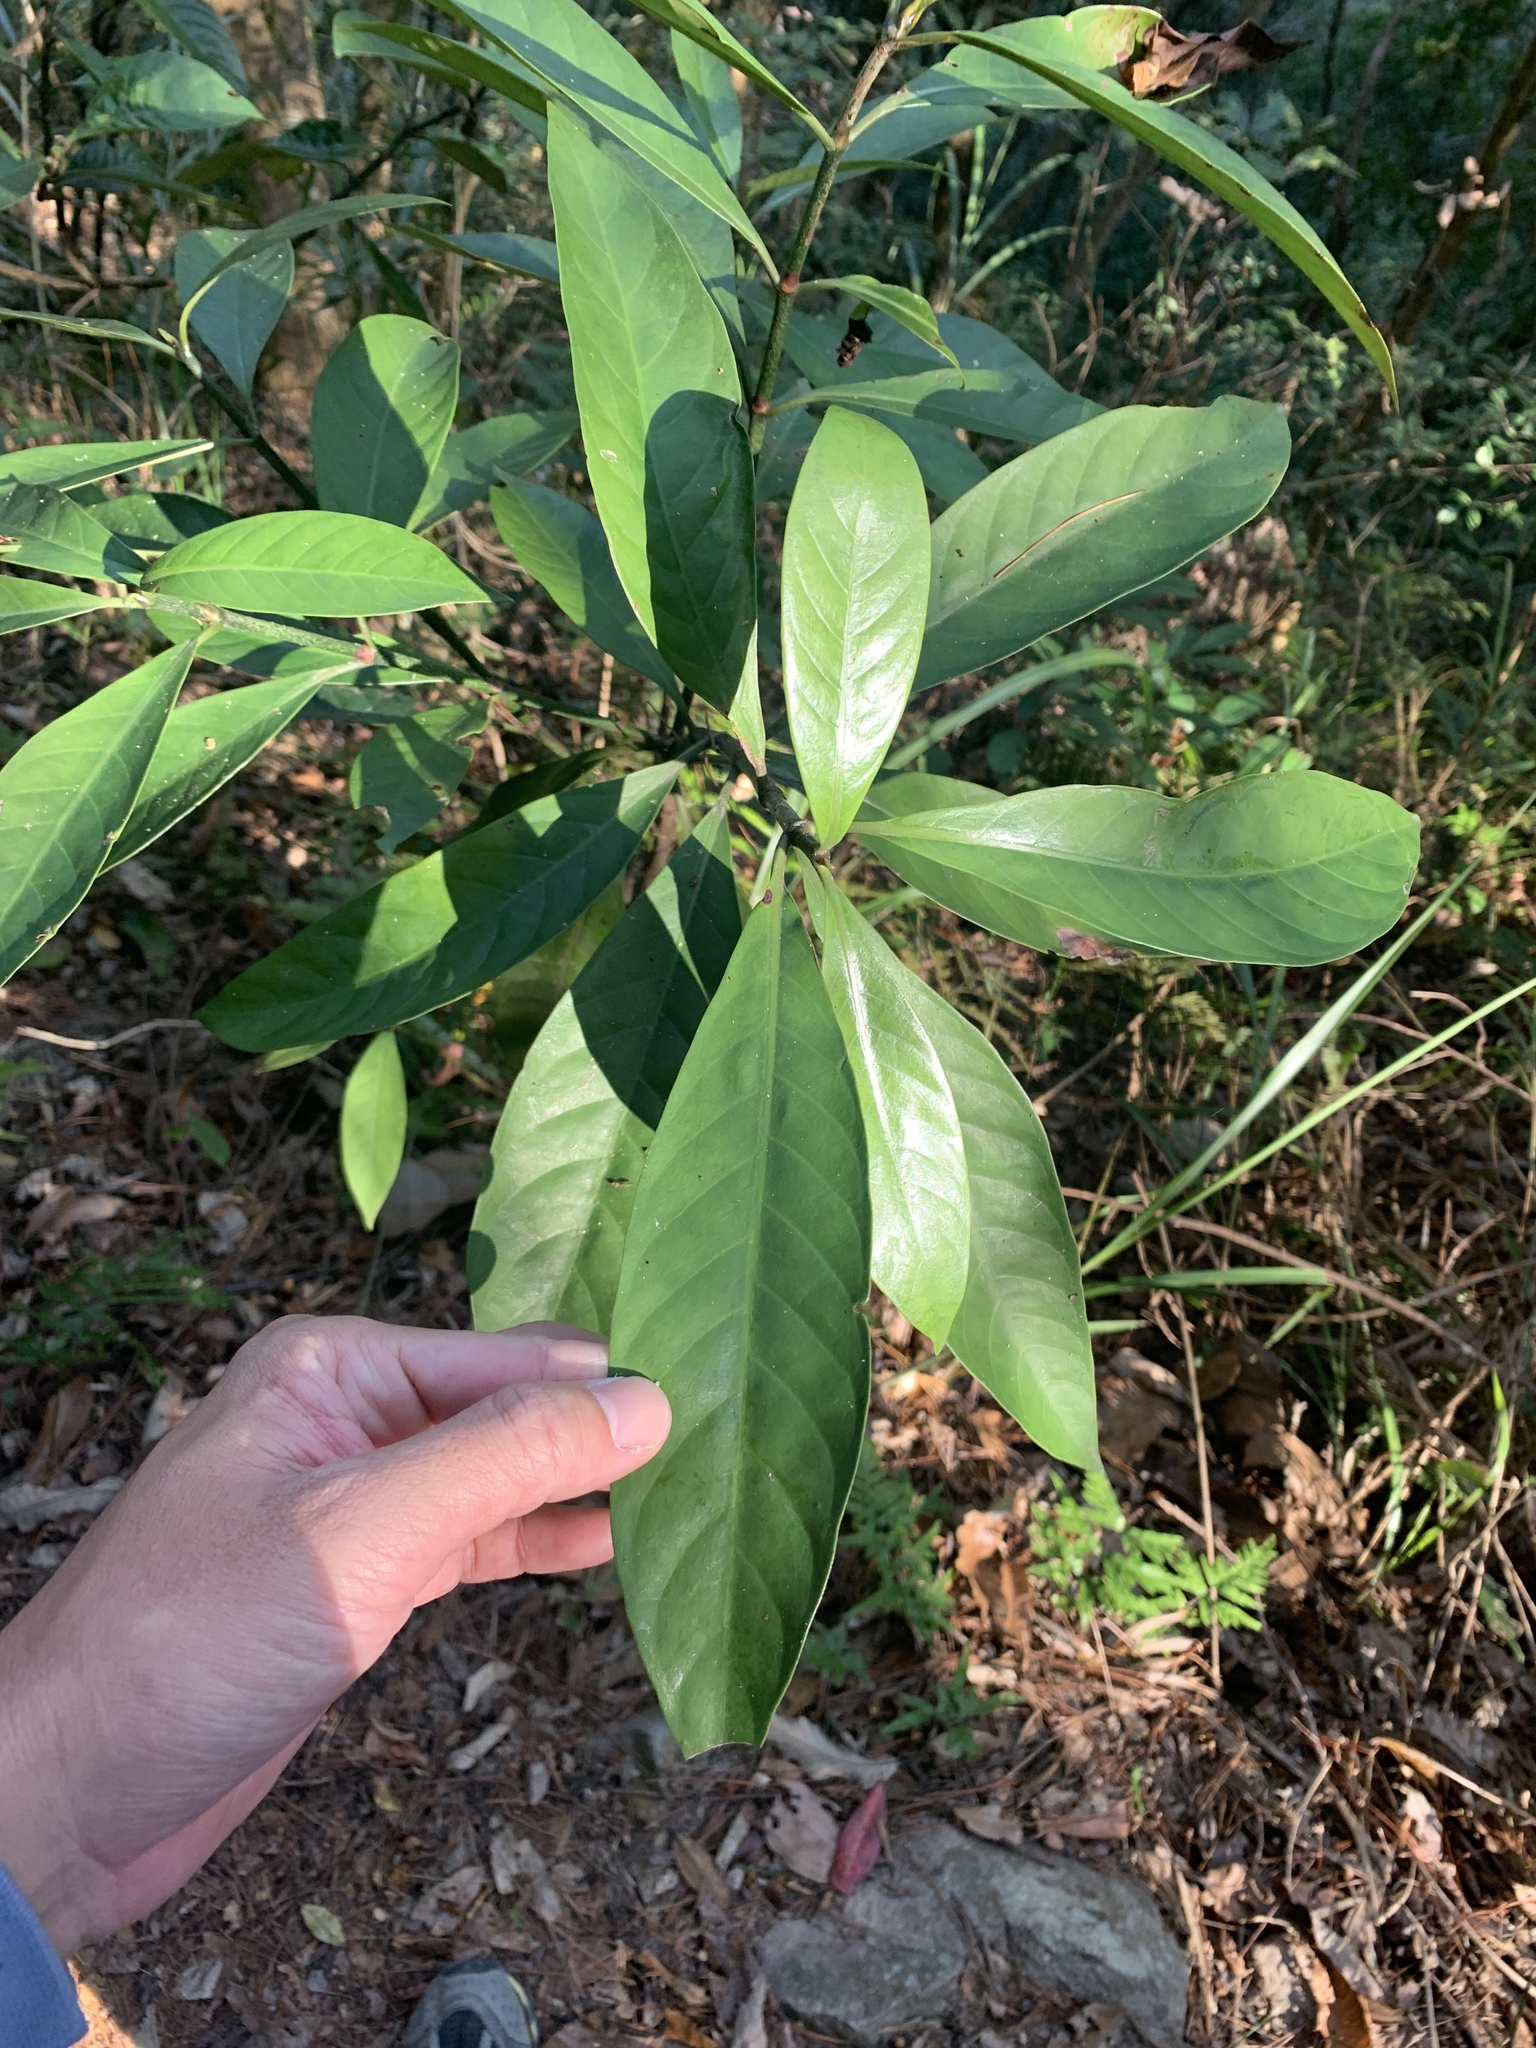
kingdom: Plantae
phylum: Tracheophyta
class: Magnoliopsida
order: Gentianales
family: Rubiaceae
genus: Psychotria
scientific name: Psychotria asiatica
